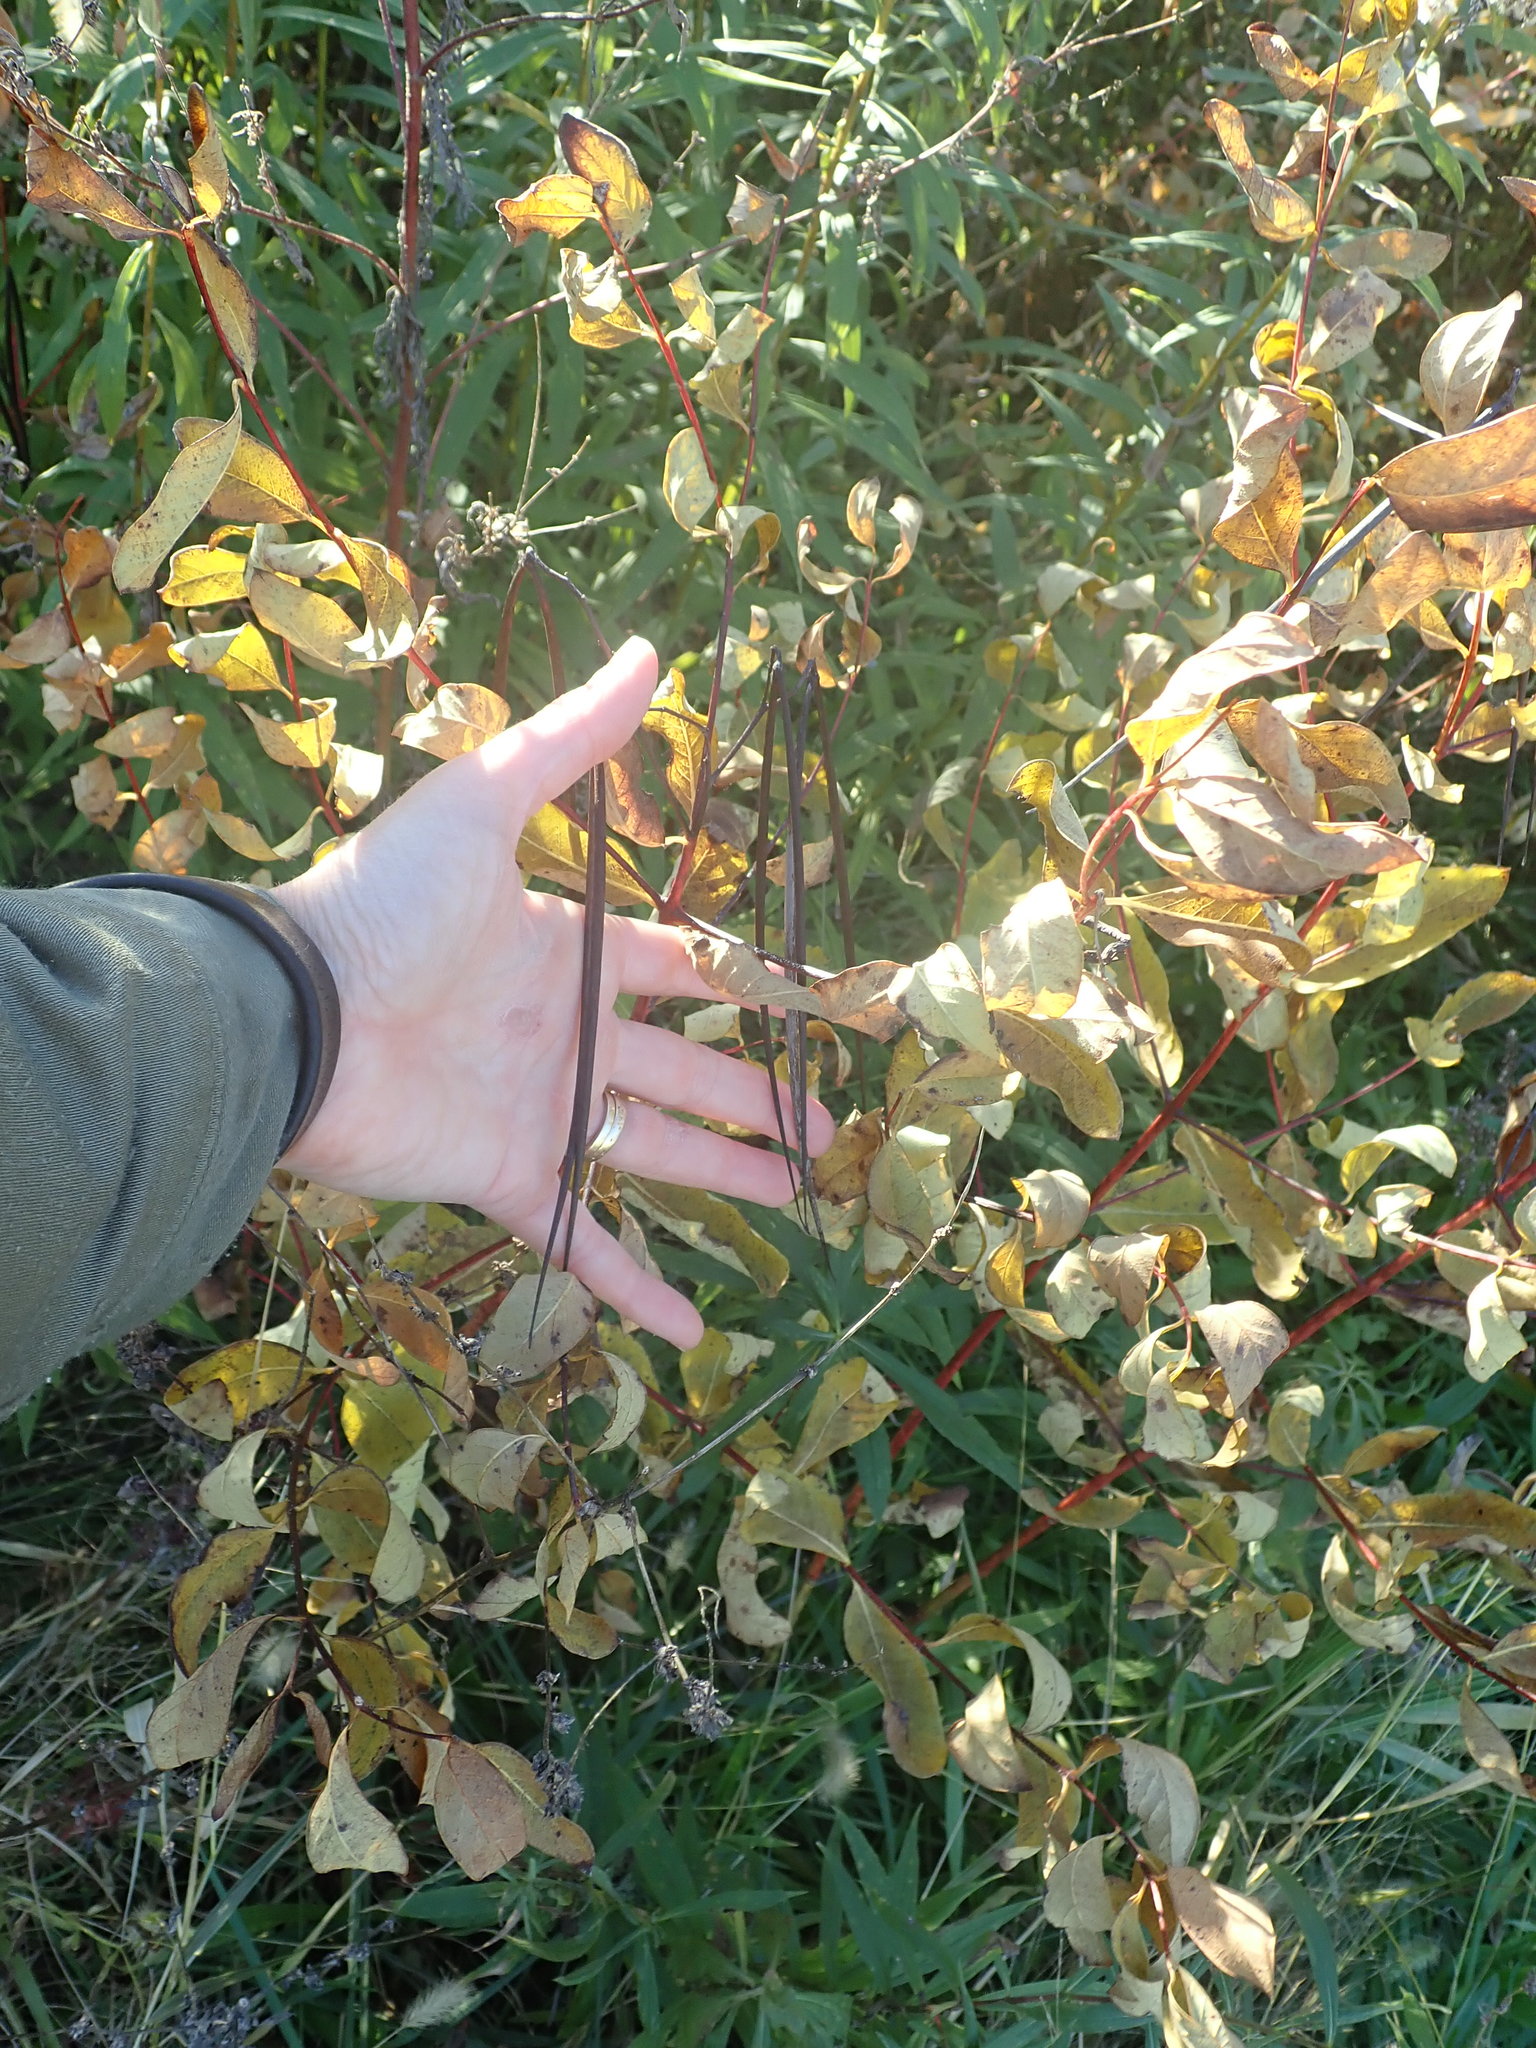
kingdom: Plantae
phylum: Tracheophyta
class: Magnoliopsida
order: Gentianales
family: Apocynaceae
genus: Apocynum
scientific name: Apocynum cannabinum
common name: Hemp dogbane
